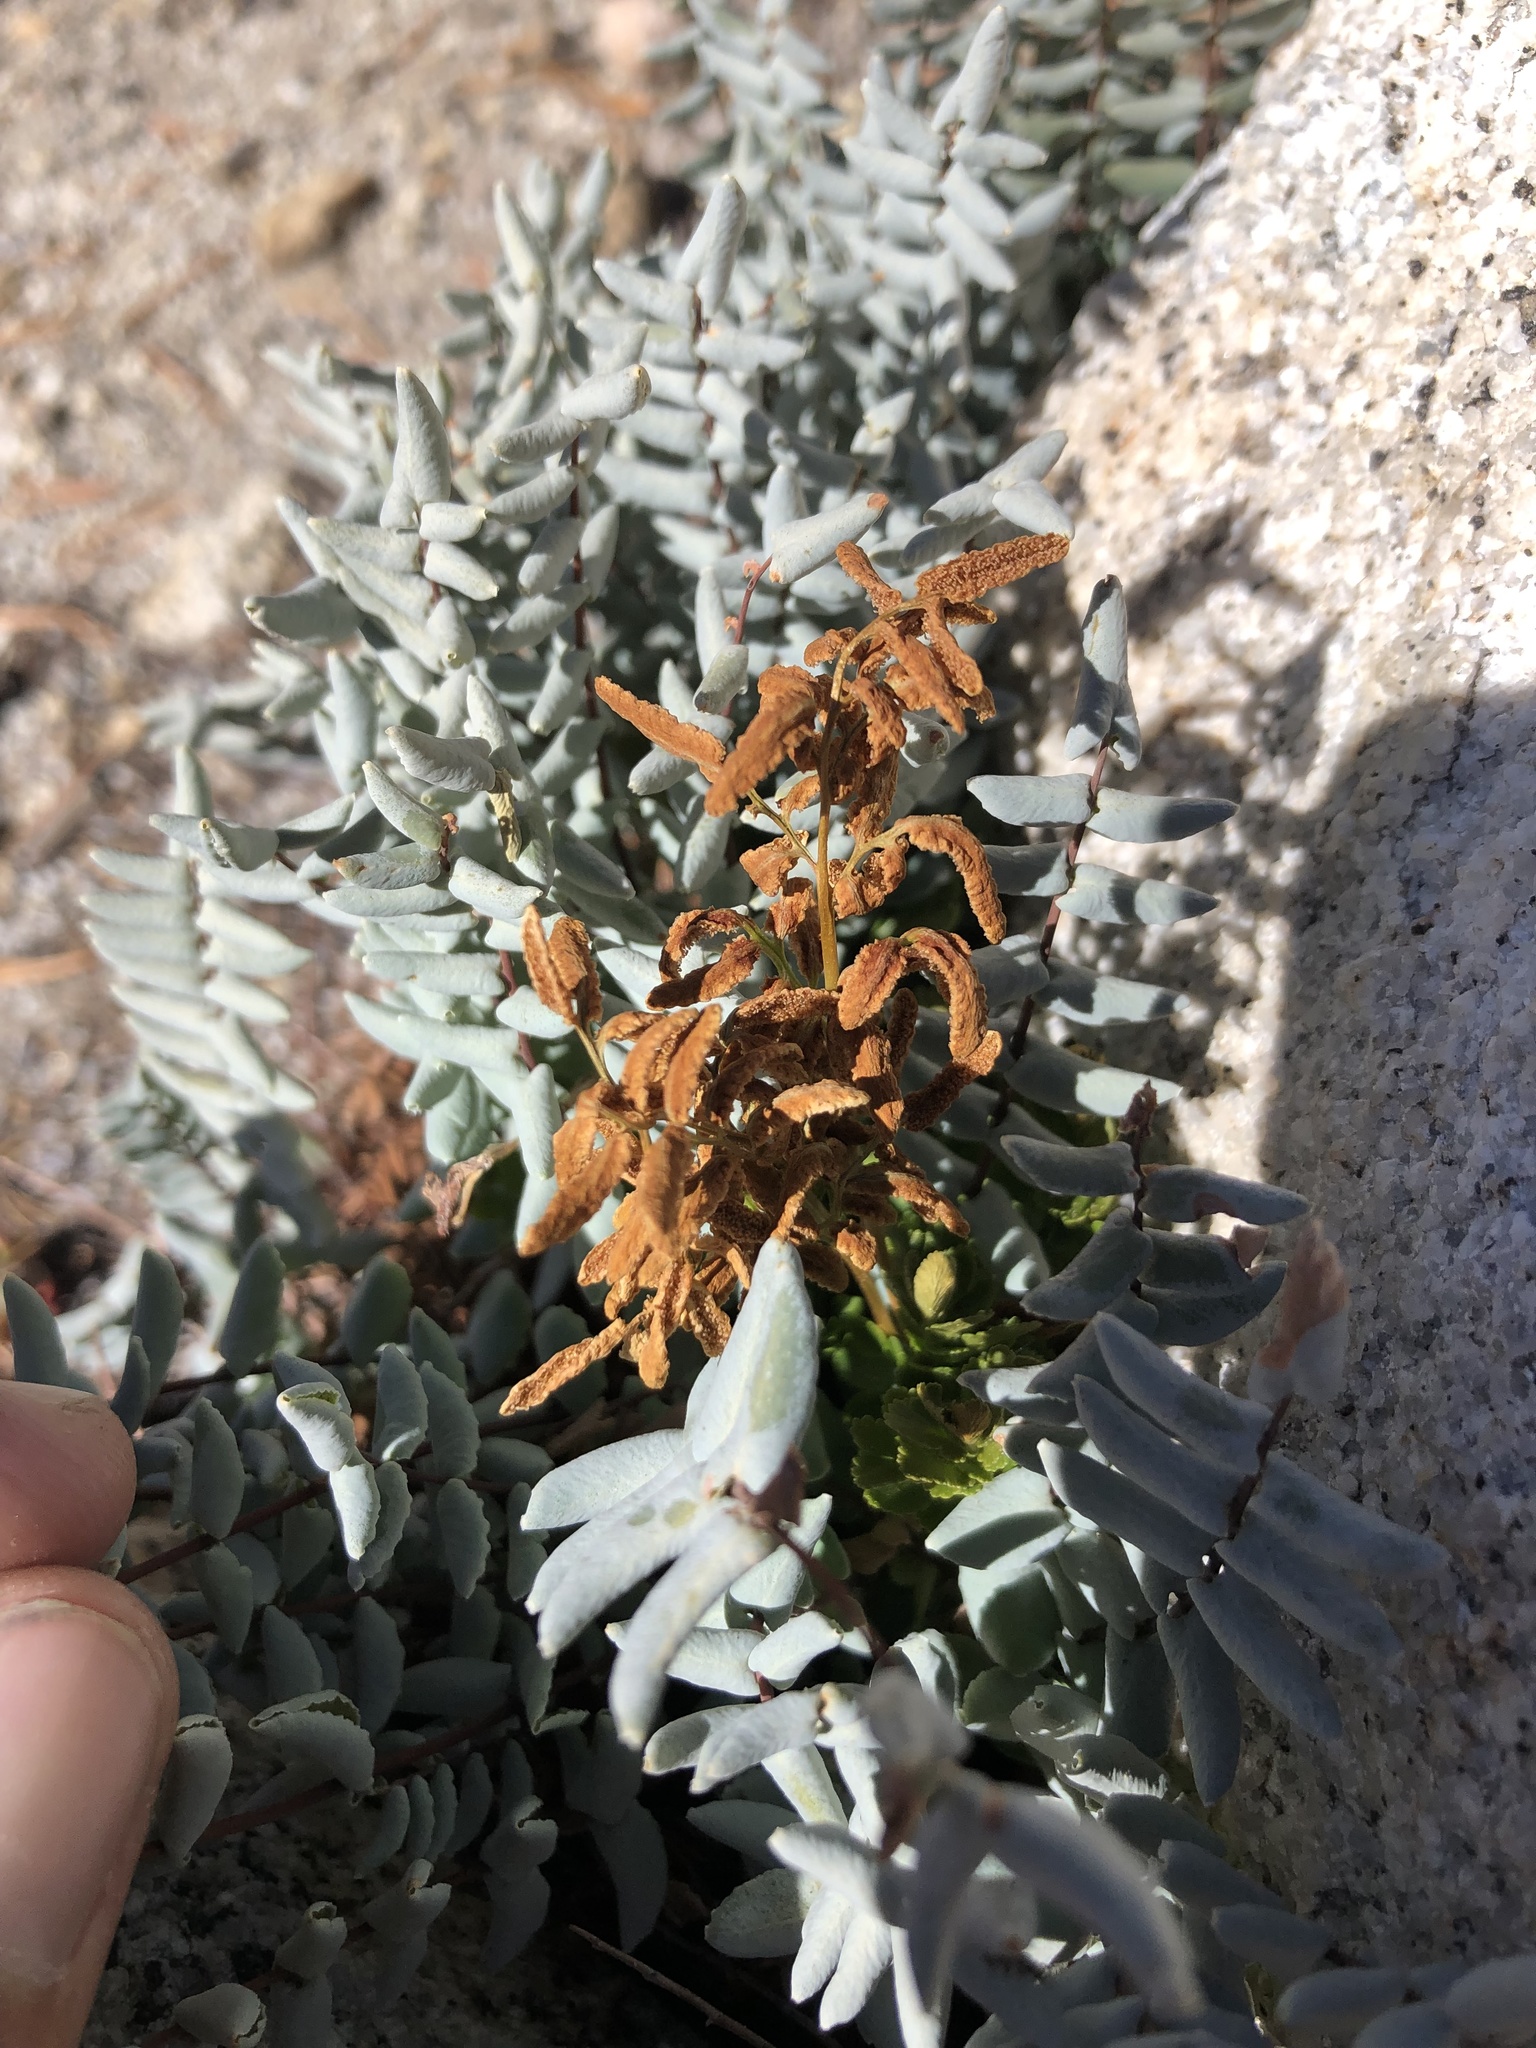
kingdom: Plantae
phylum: Tracheophyta
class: Polypodiopsida
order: Polypodiales
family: Pteridaceae
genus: Pellaea
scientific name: Pellaea bridgesii
